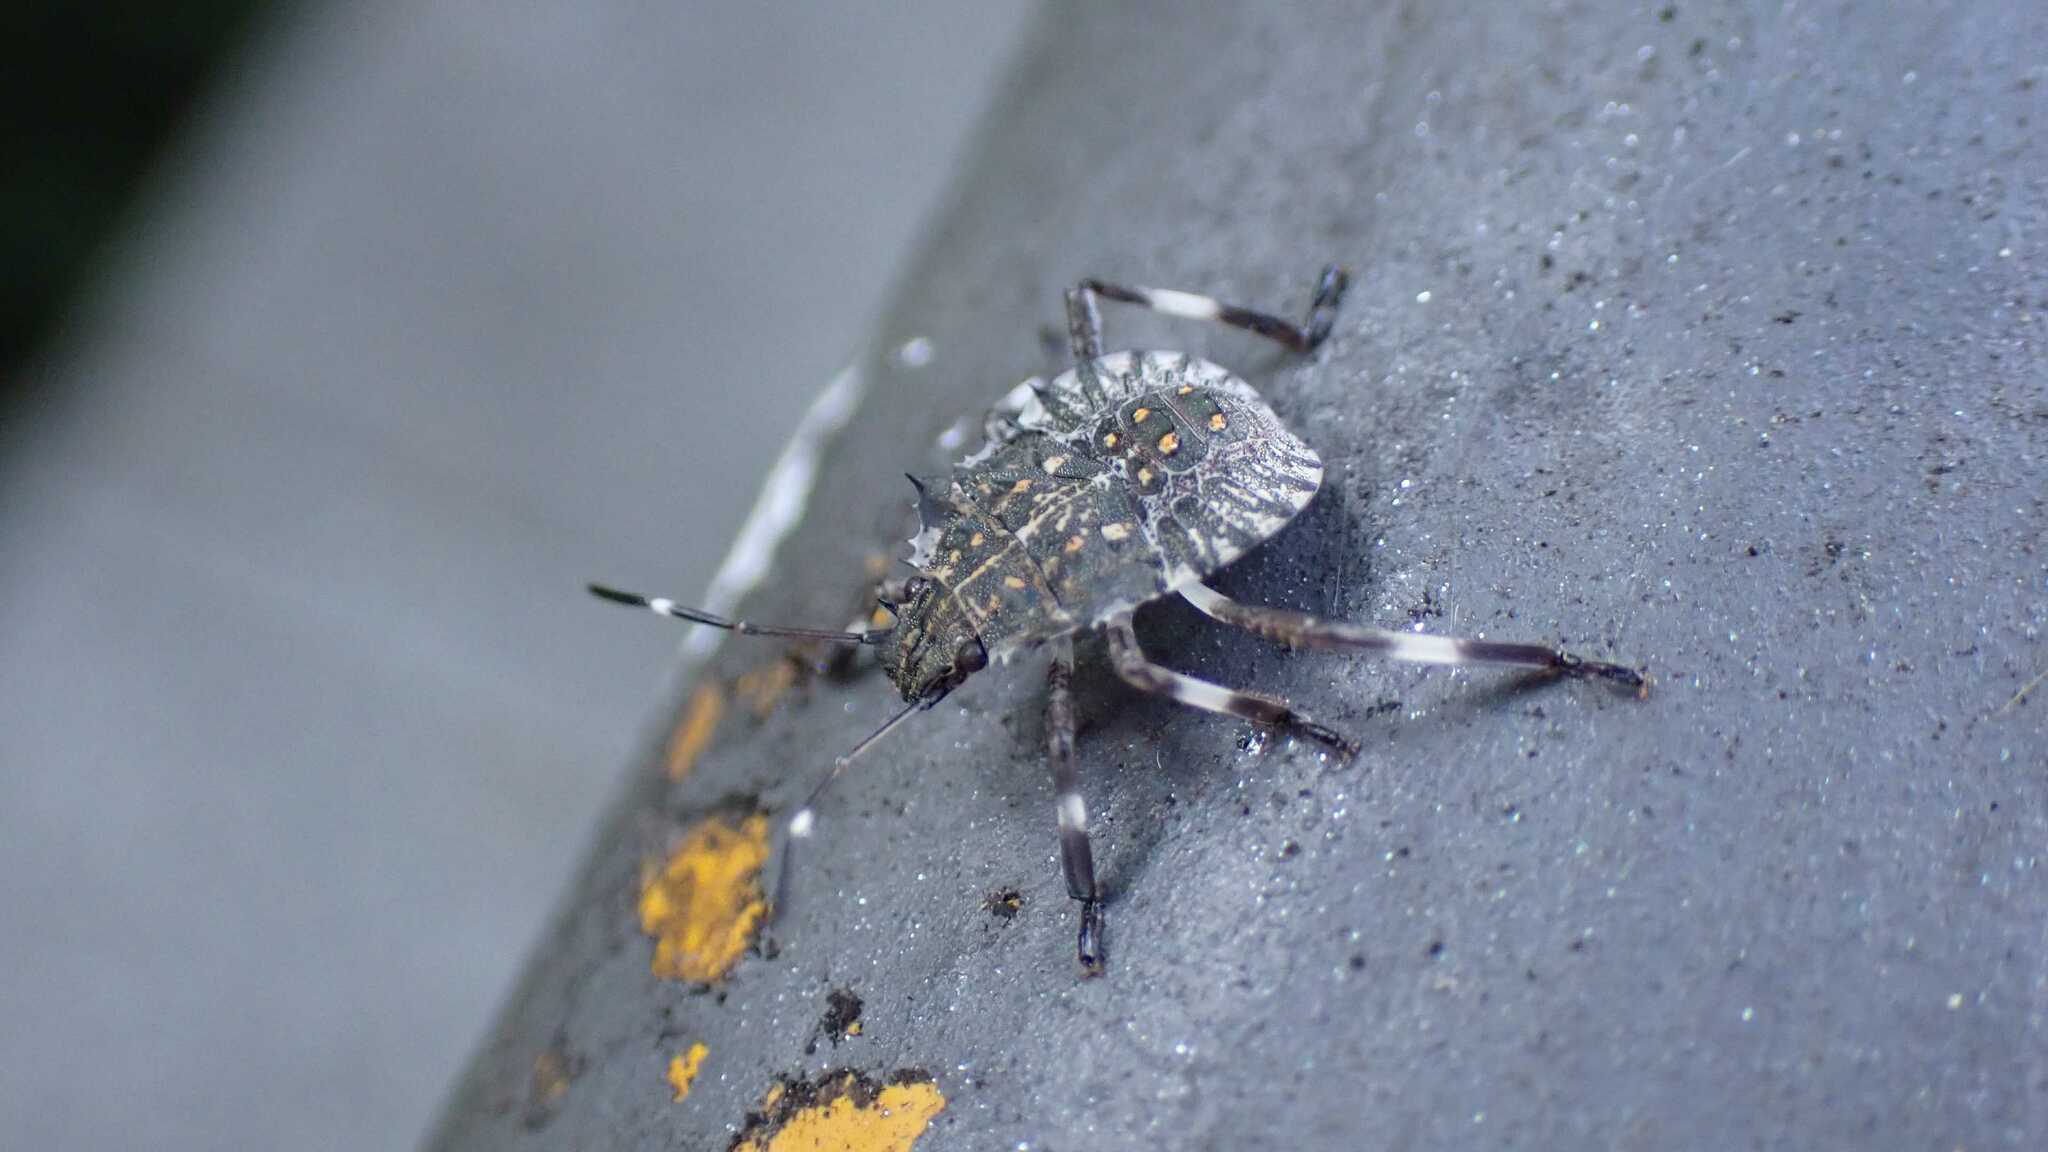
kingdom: Animalia
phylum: Arthropoda
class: Insecta
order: Hemiptera
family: Pentatomidae
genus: Halyomorpha
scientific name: Halyomorpha halys
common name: Brown marmorated stink bug
